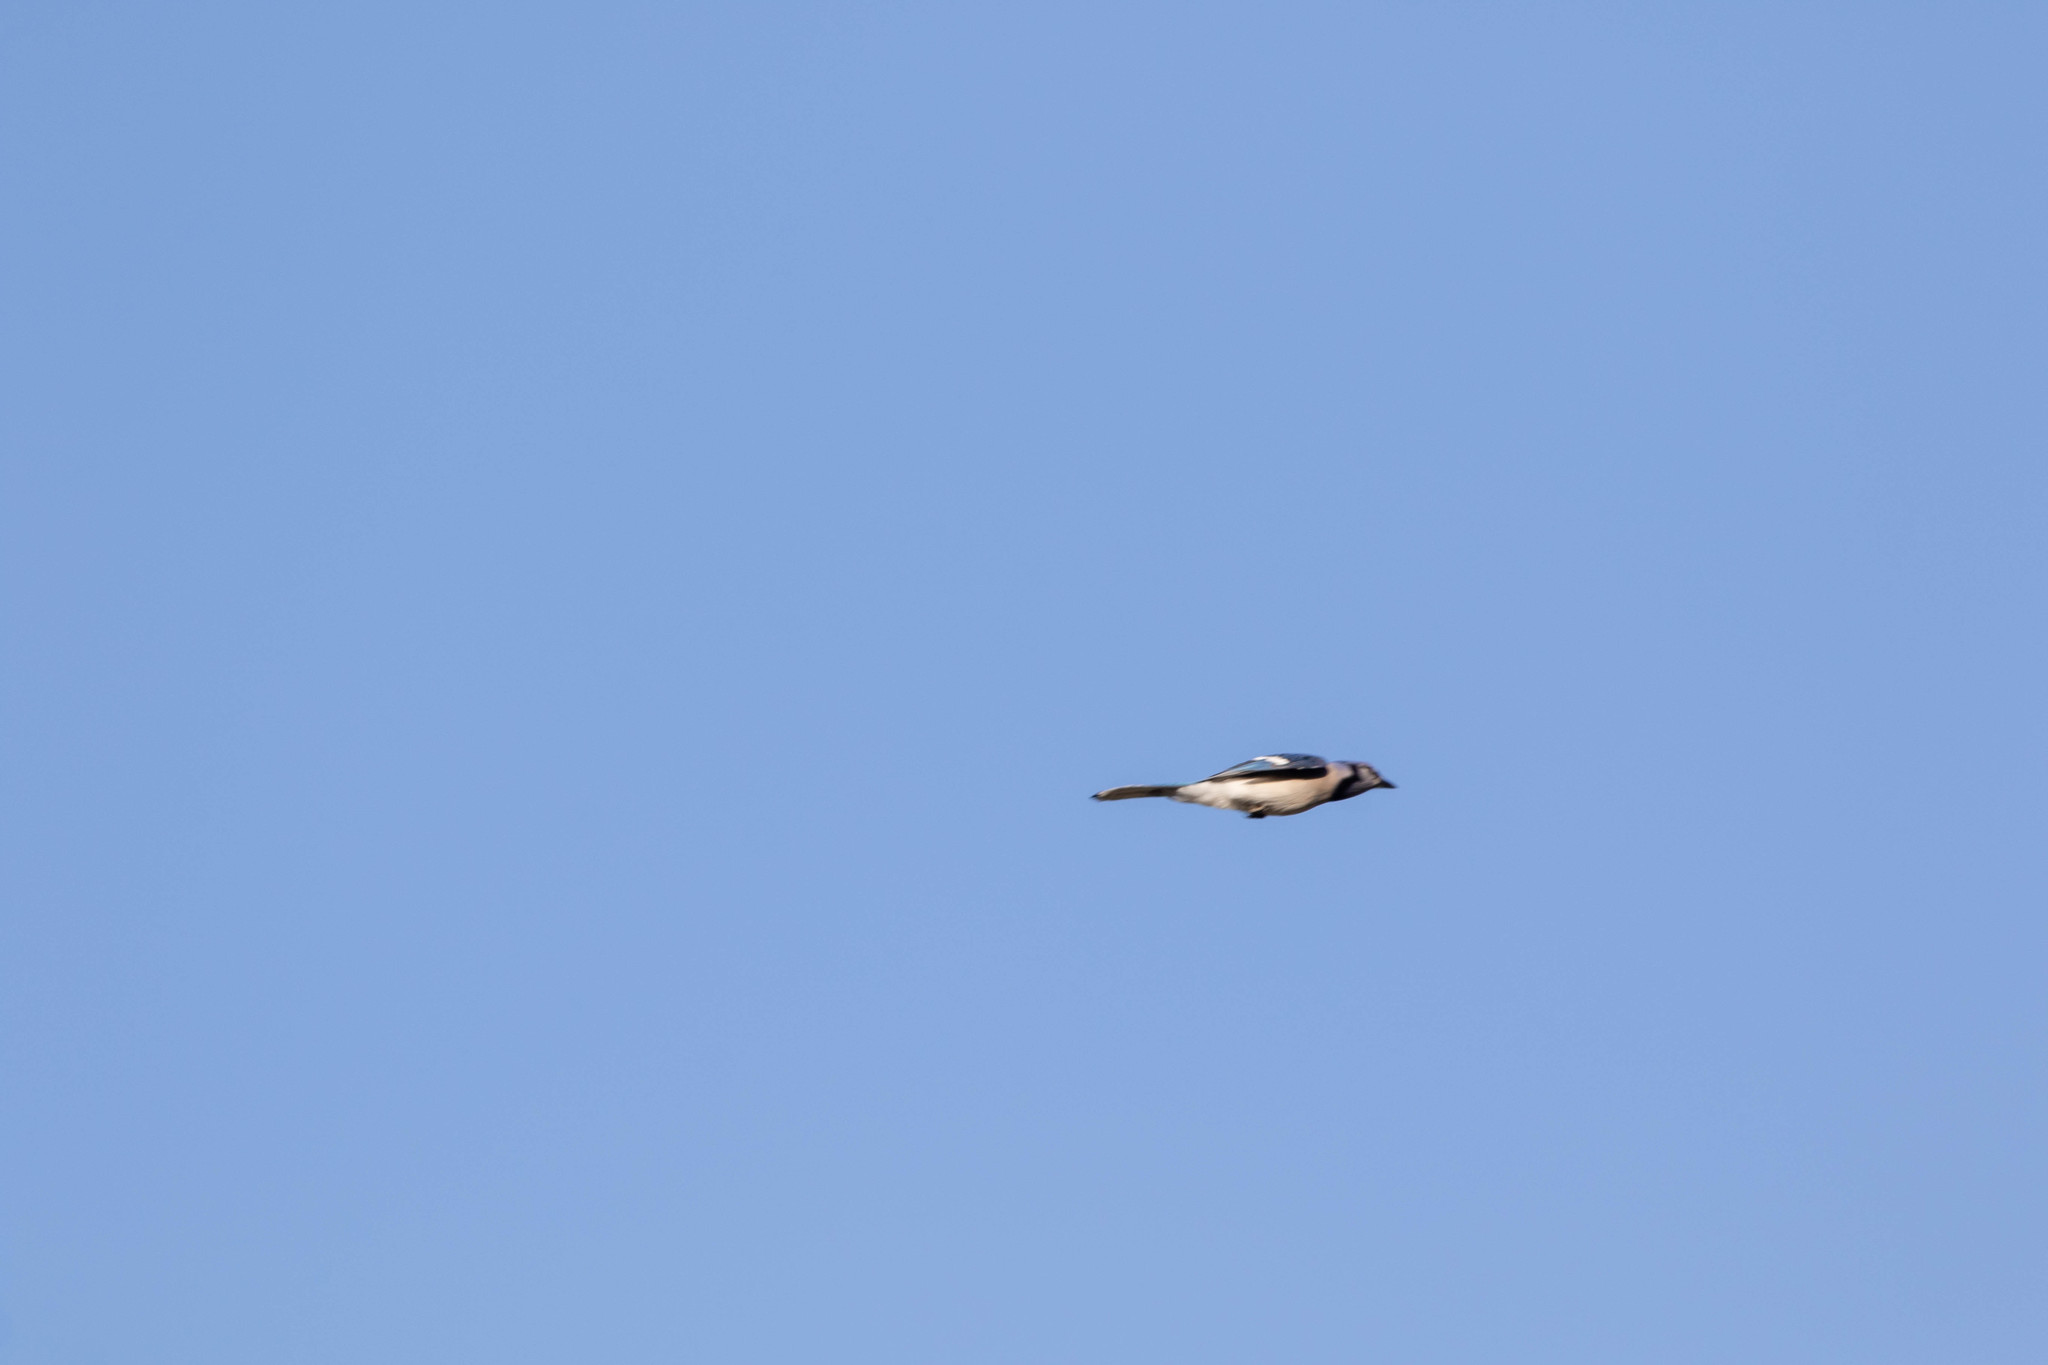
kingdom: Animalia
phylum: Chordata
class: Aves
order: Passeriformes
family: Corvidae
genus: Cyanocitta
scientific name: Cyanocitta cristata
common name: Blue jay
